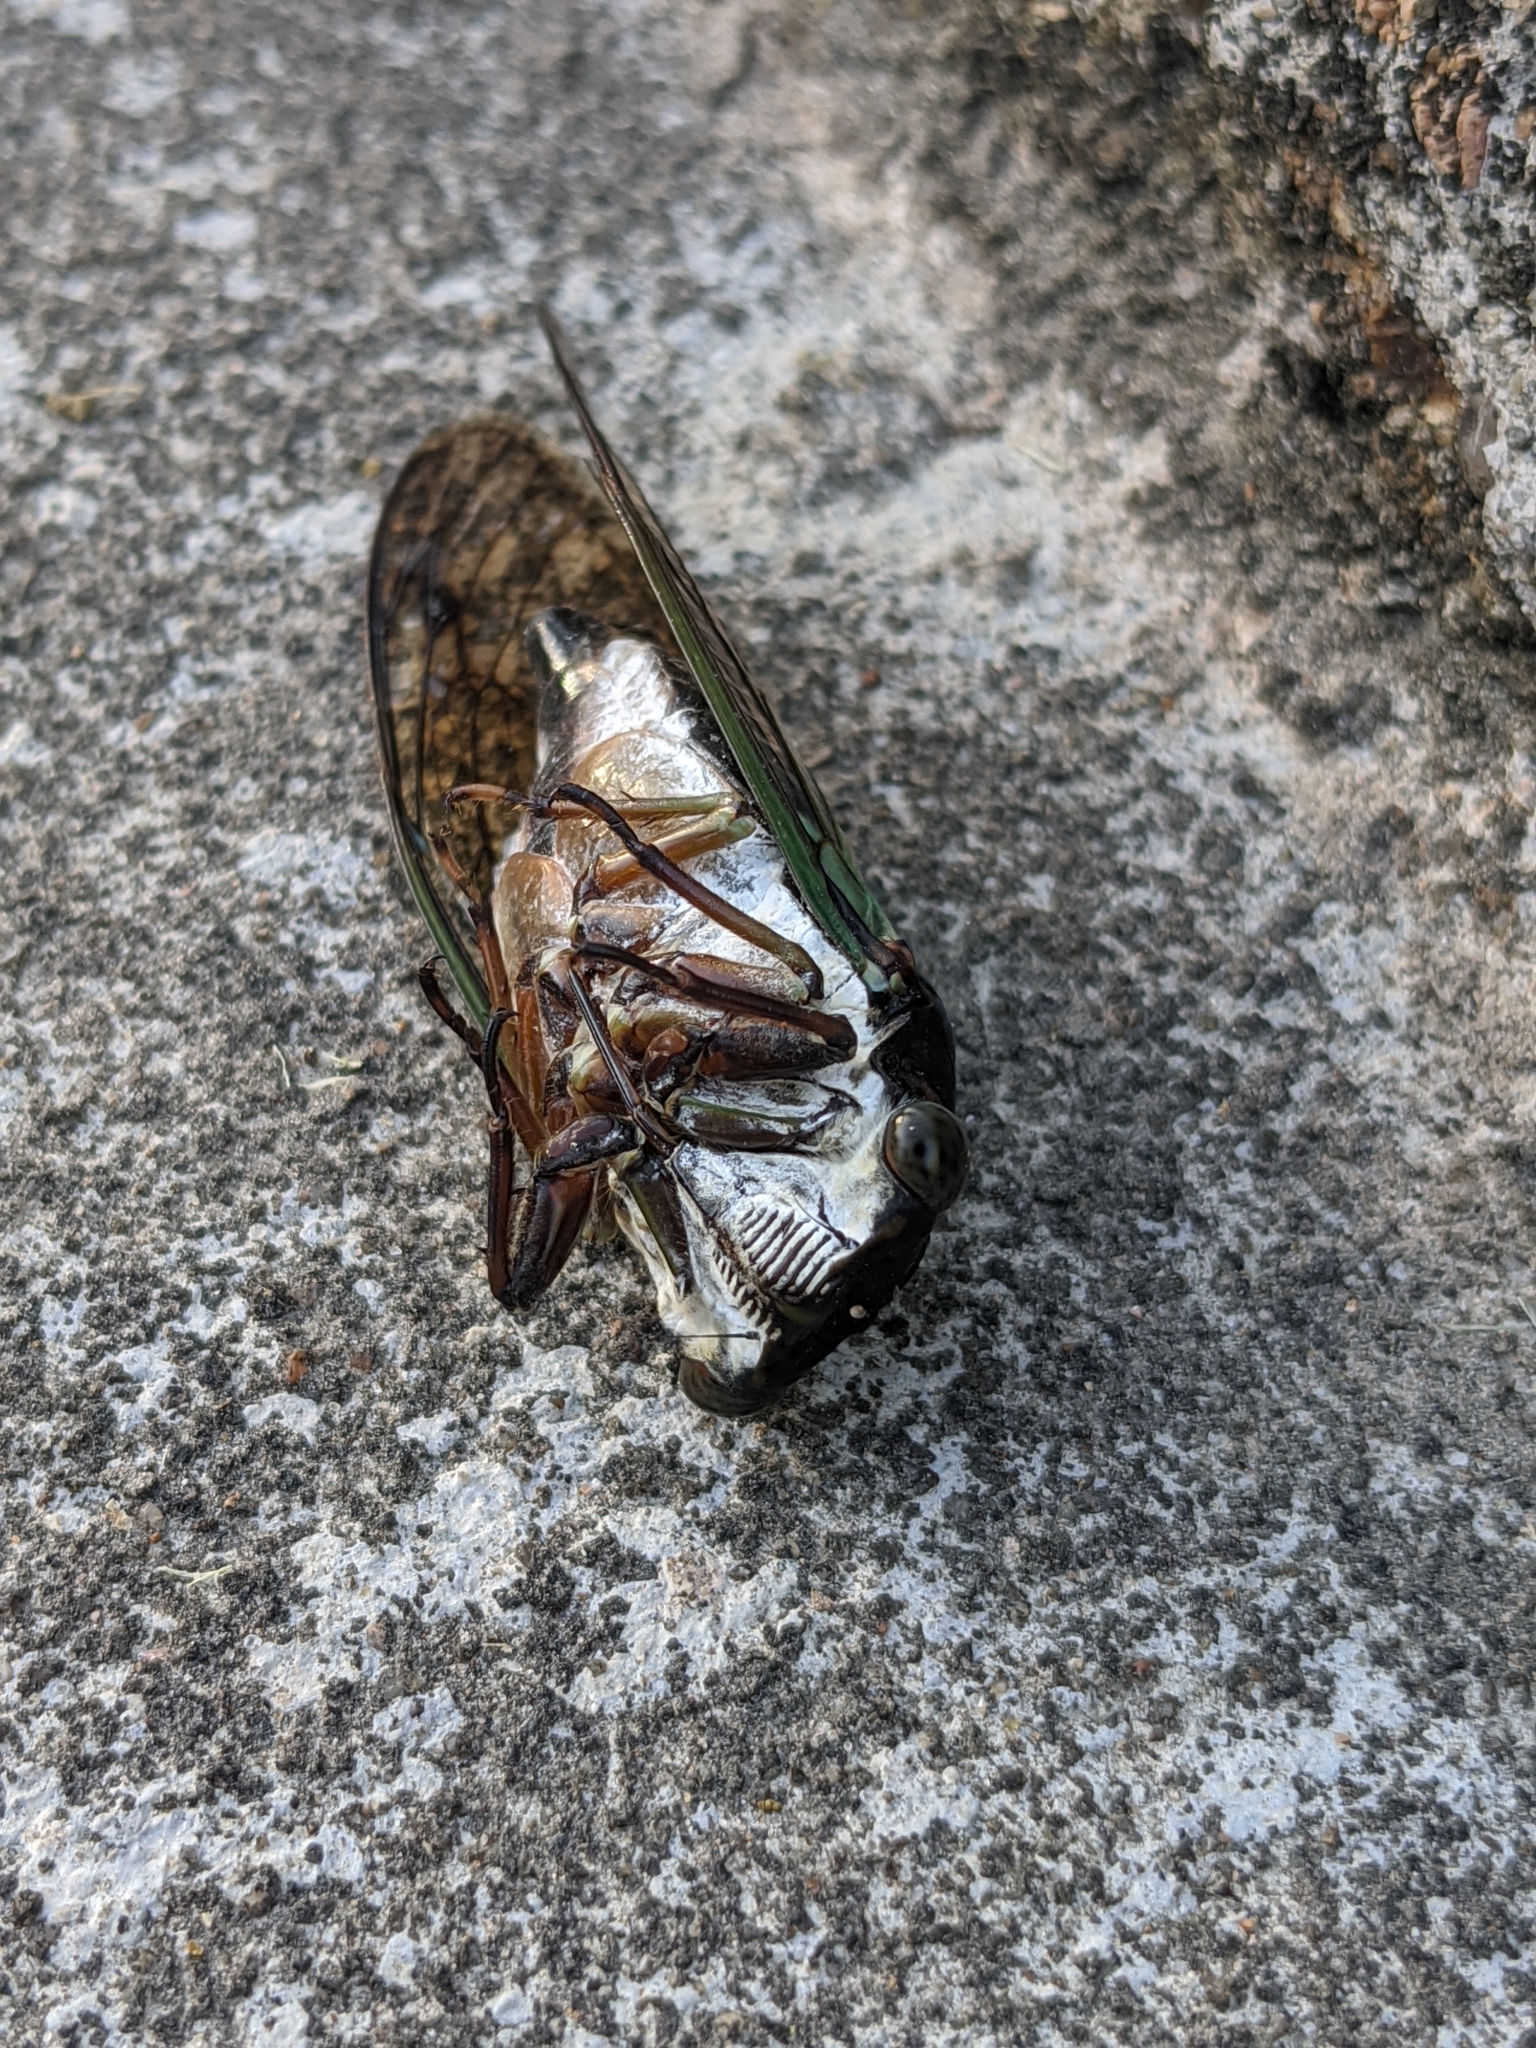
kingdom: Animalia
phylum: Arthropoda
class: Insecta
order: Hemiptera
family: Cicadidae
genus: Neotibicen
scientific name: Neotibicen lyricen
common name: Lyric cicada
